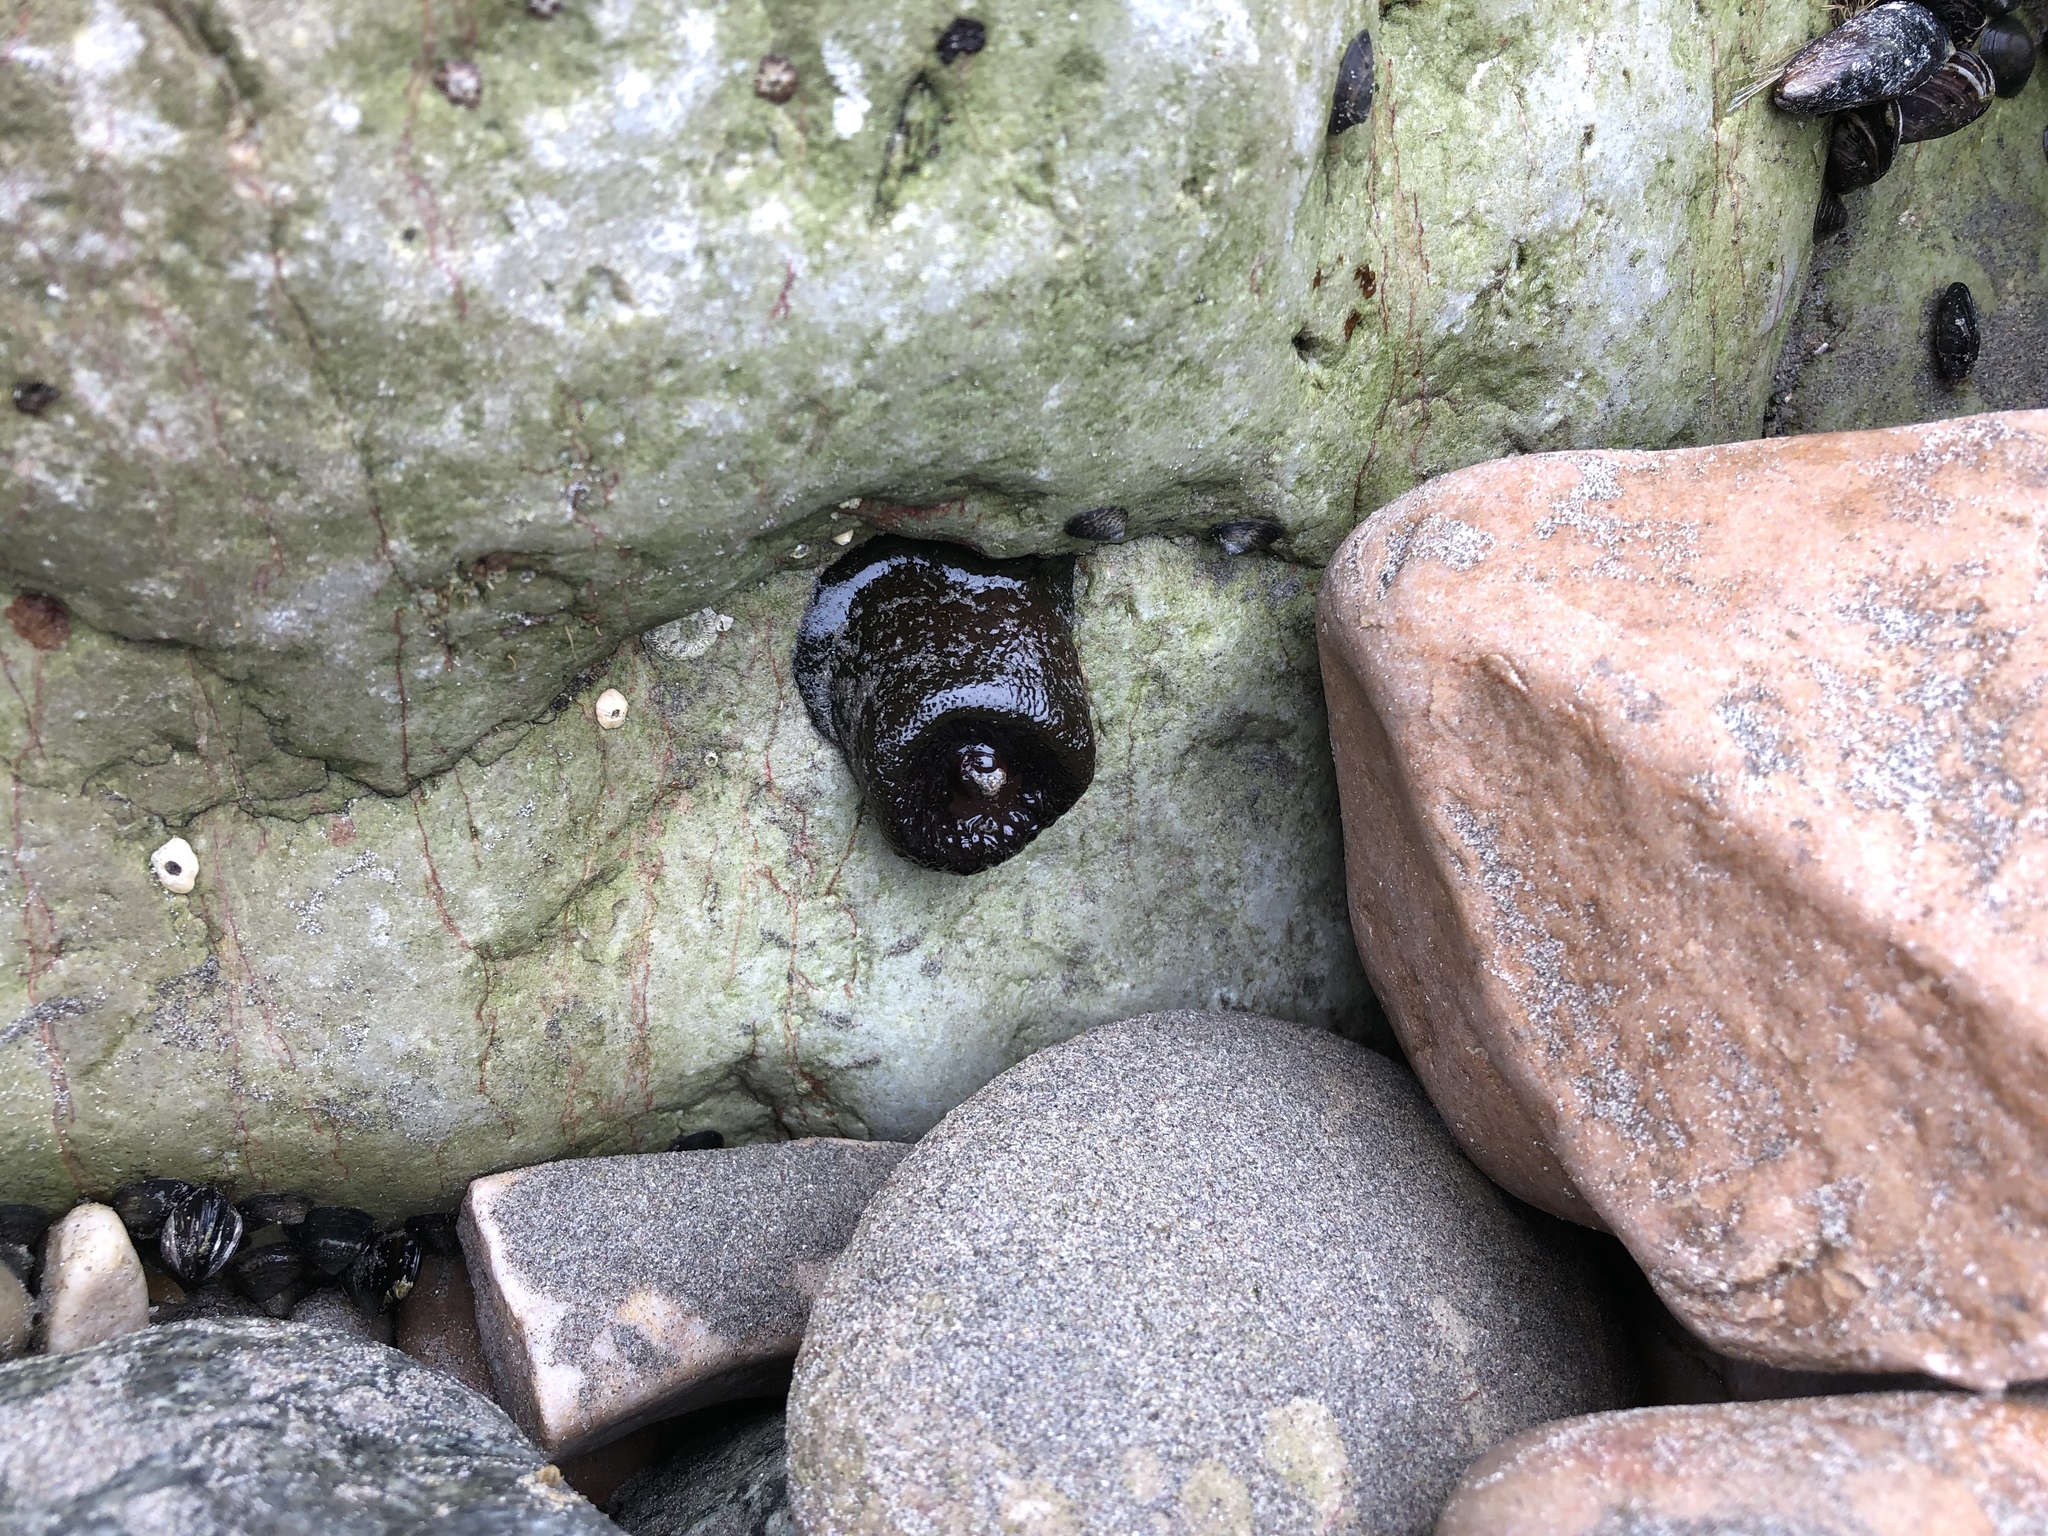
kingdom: Animalia
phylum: Cnidaria
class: Anthozoa
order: Actiniaria
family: Actiniidae
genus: Phymactis
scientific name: Phymactis papillosa
